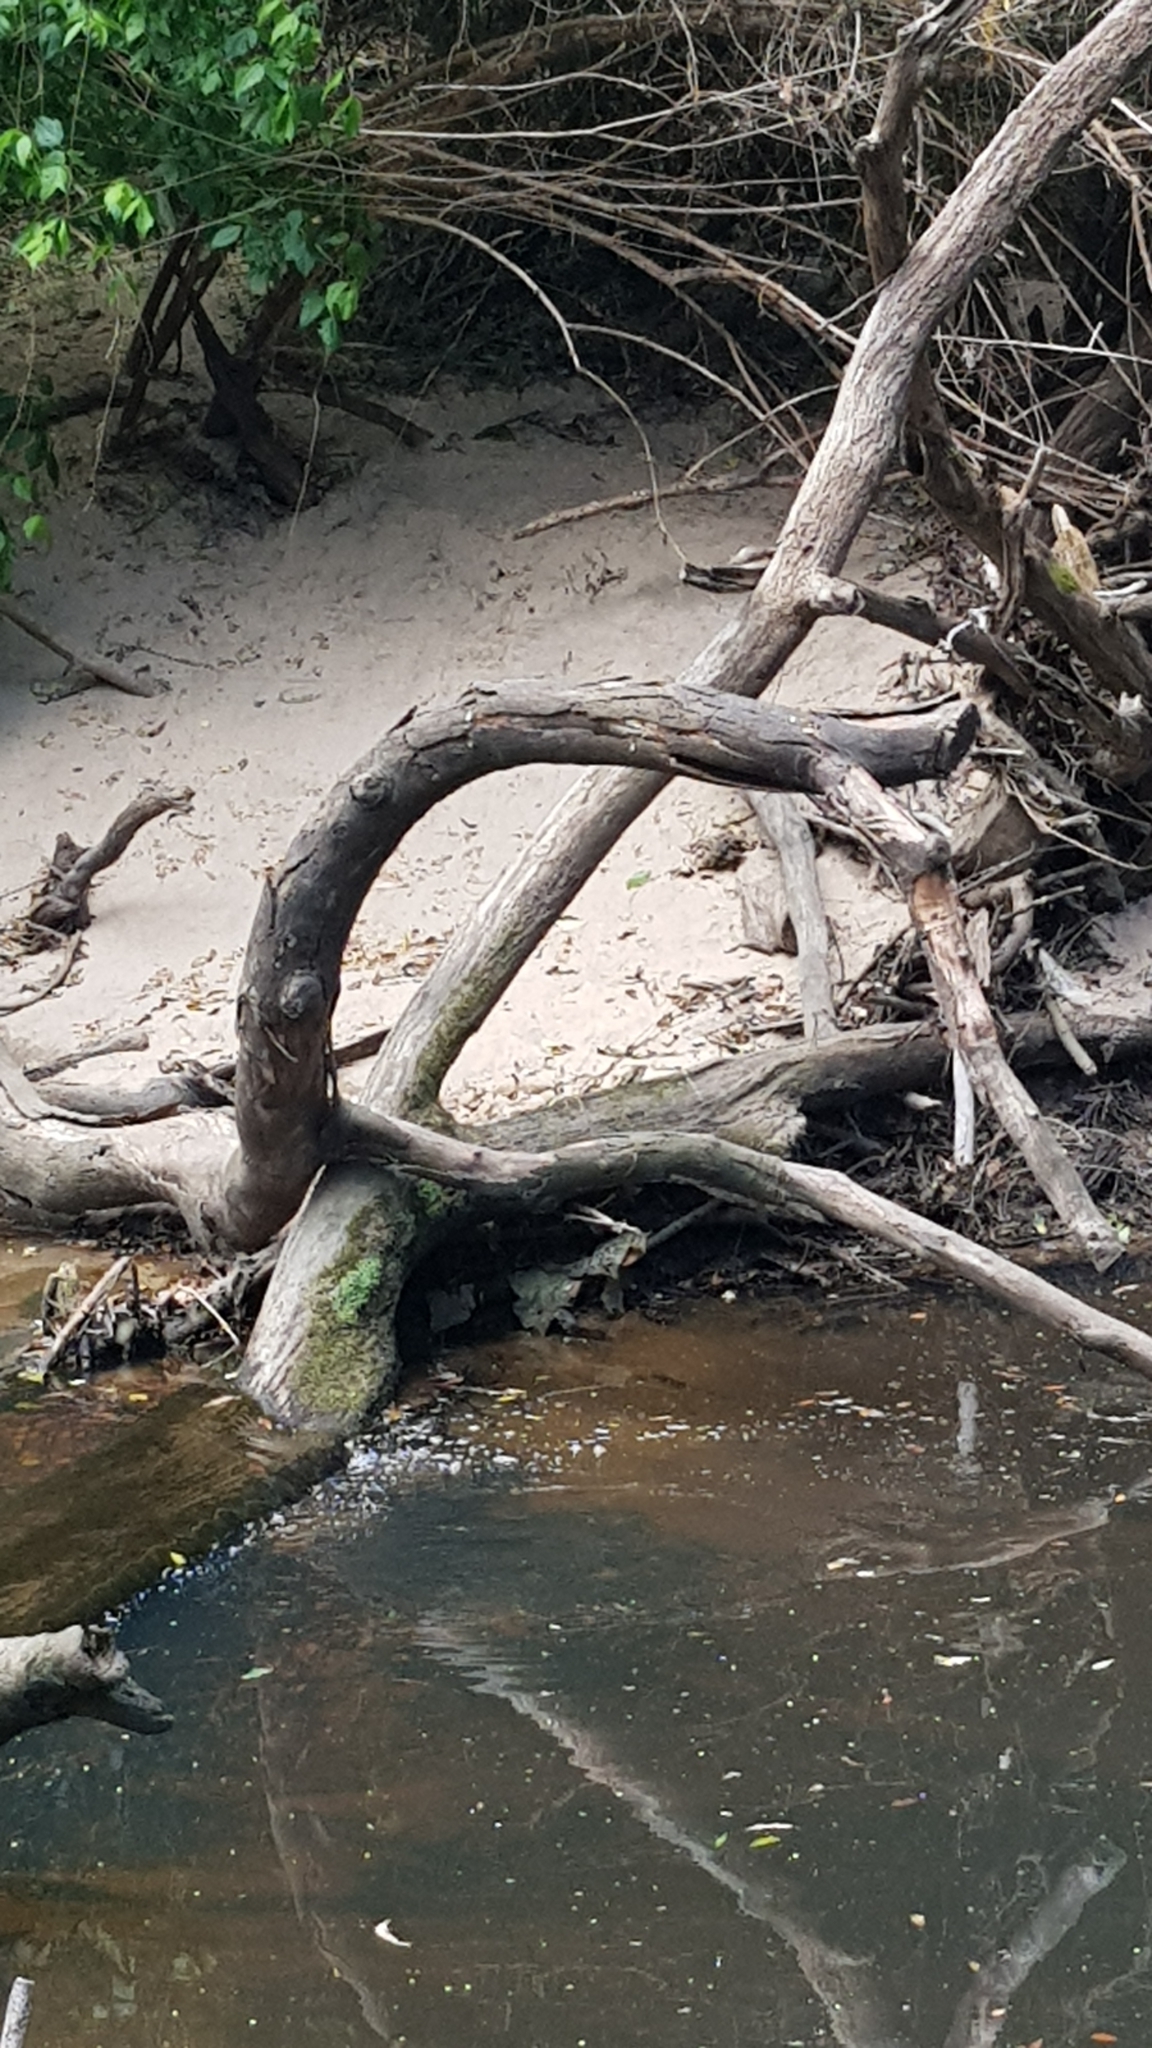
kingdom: Animalia
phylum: Chordata
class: Squamata
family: Agamidae
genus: Intellagama
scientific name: Intellagama lesueurii
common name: Eastern water dragon
